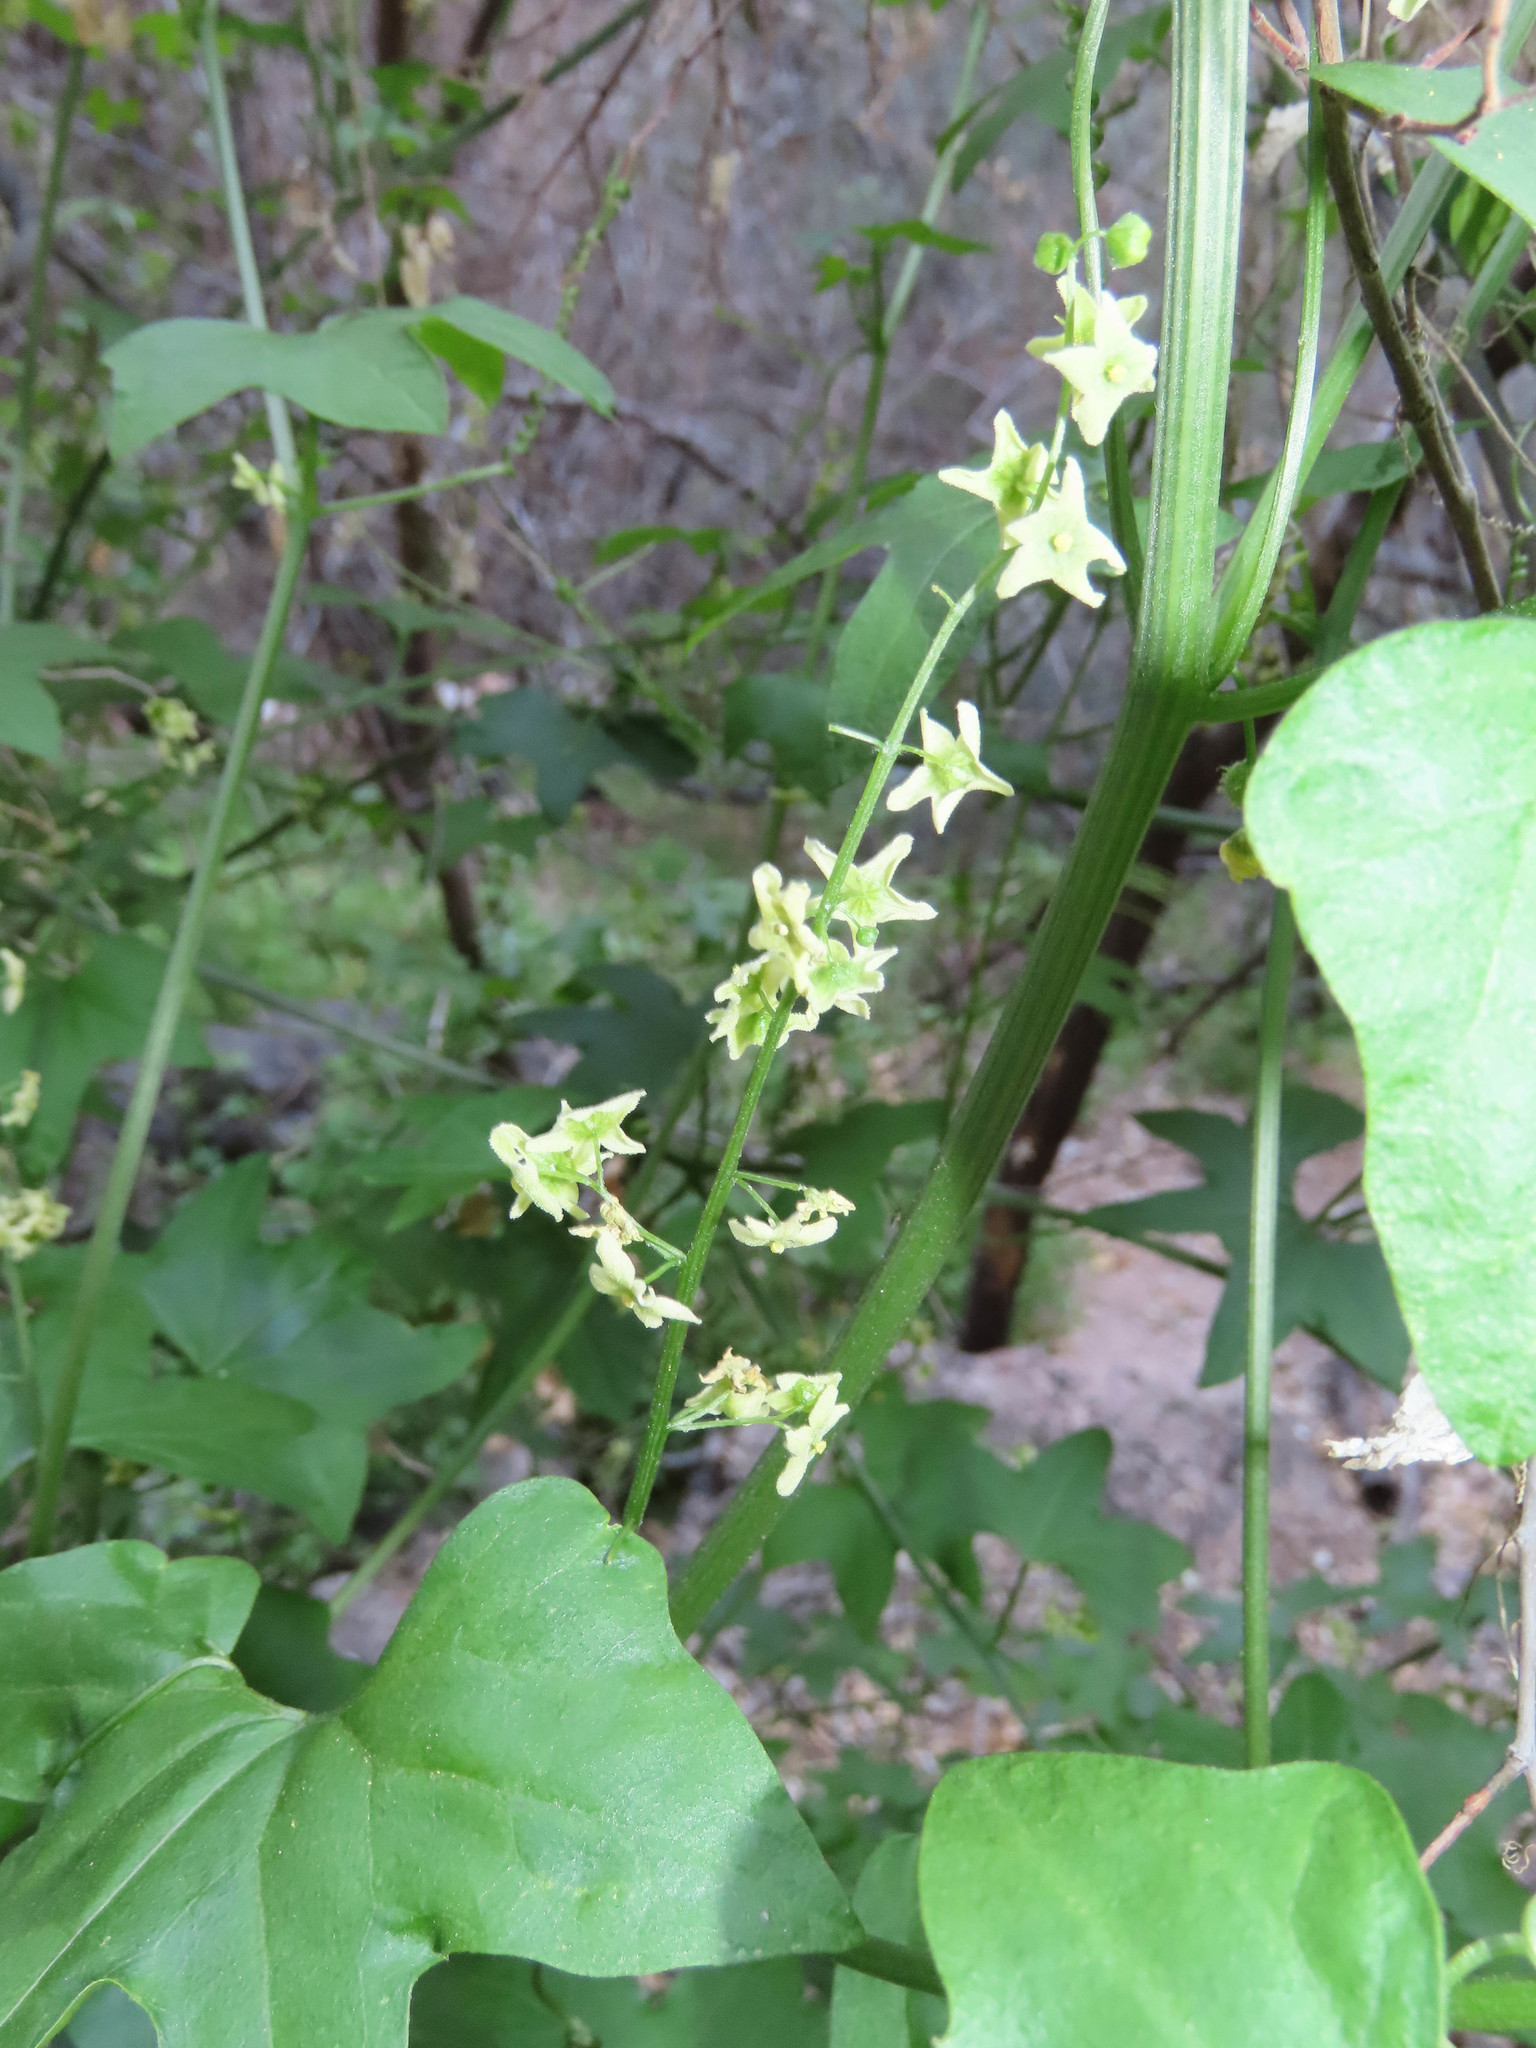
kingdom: Plantae
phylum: Tracheophyta
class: Magnoliopsida
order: Cucurbitales
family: Cucurbitaceae
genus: Marah
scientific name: Marah gilensis
